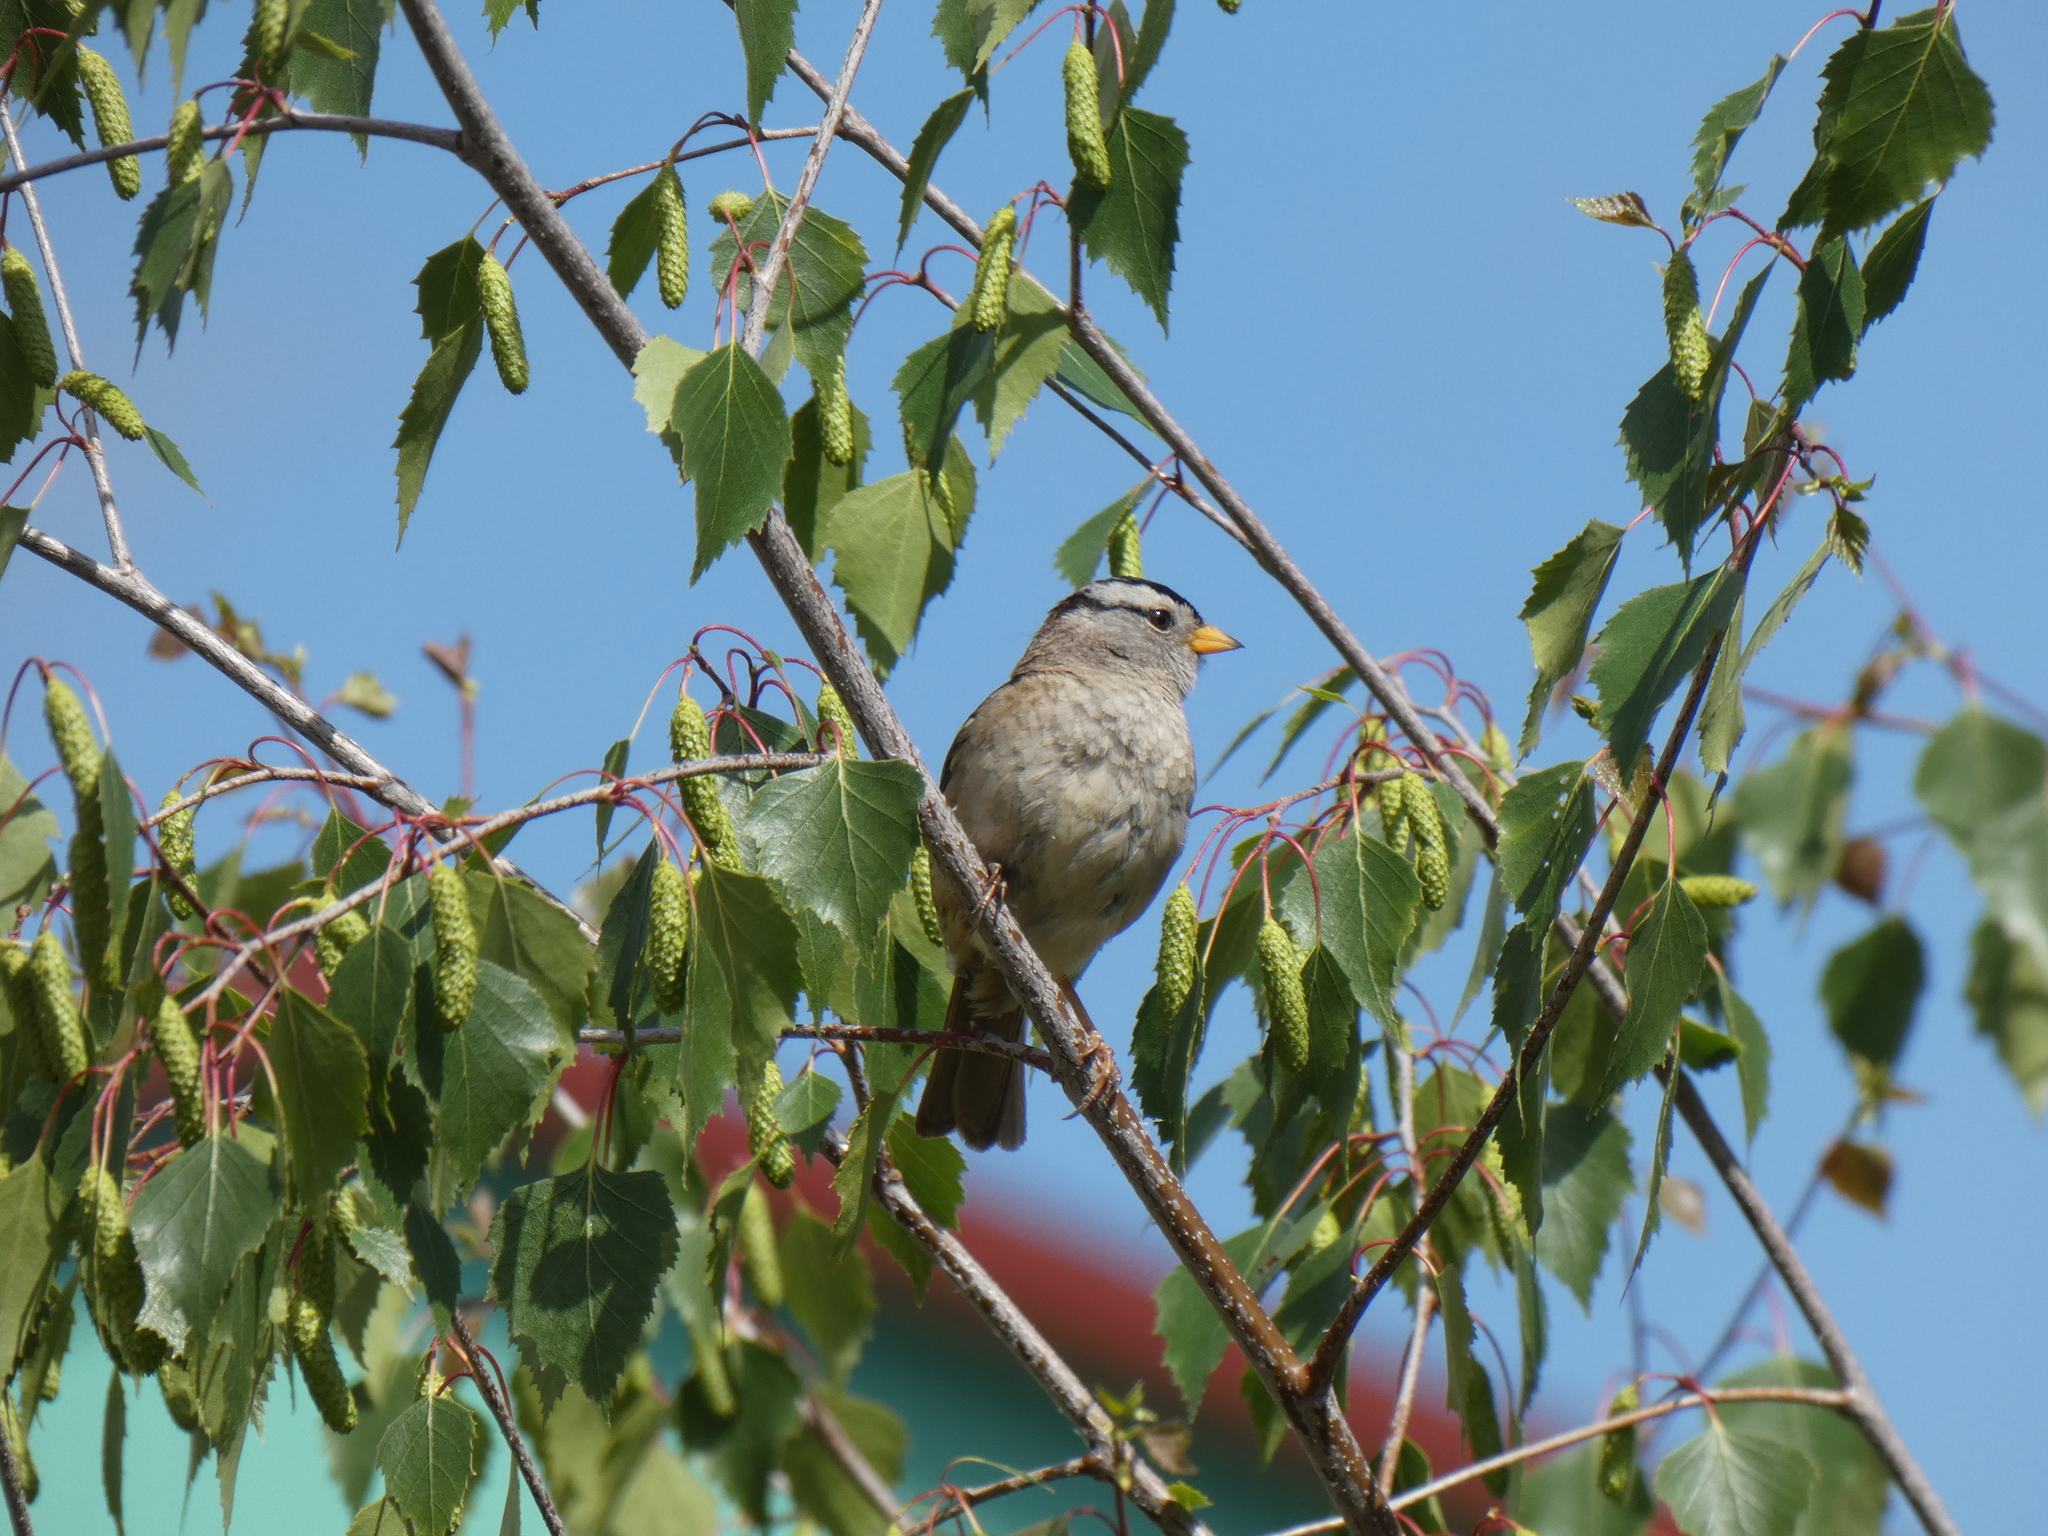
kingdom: Animalia
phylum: Chordata
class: Aves
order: Passeriformes
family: Passerellidae
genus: Zonotrichia
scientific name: Zonotrichia leucophrys
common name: White-crowned sparrow
